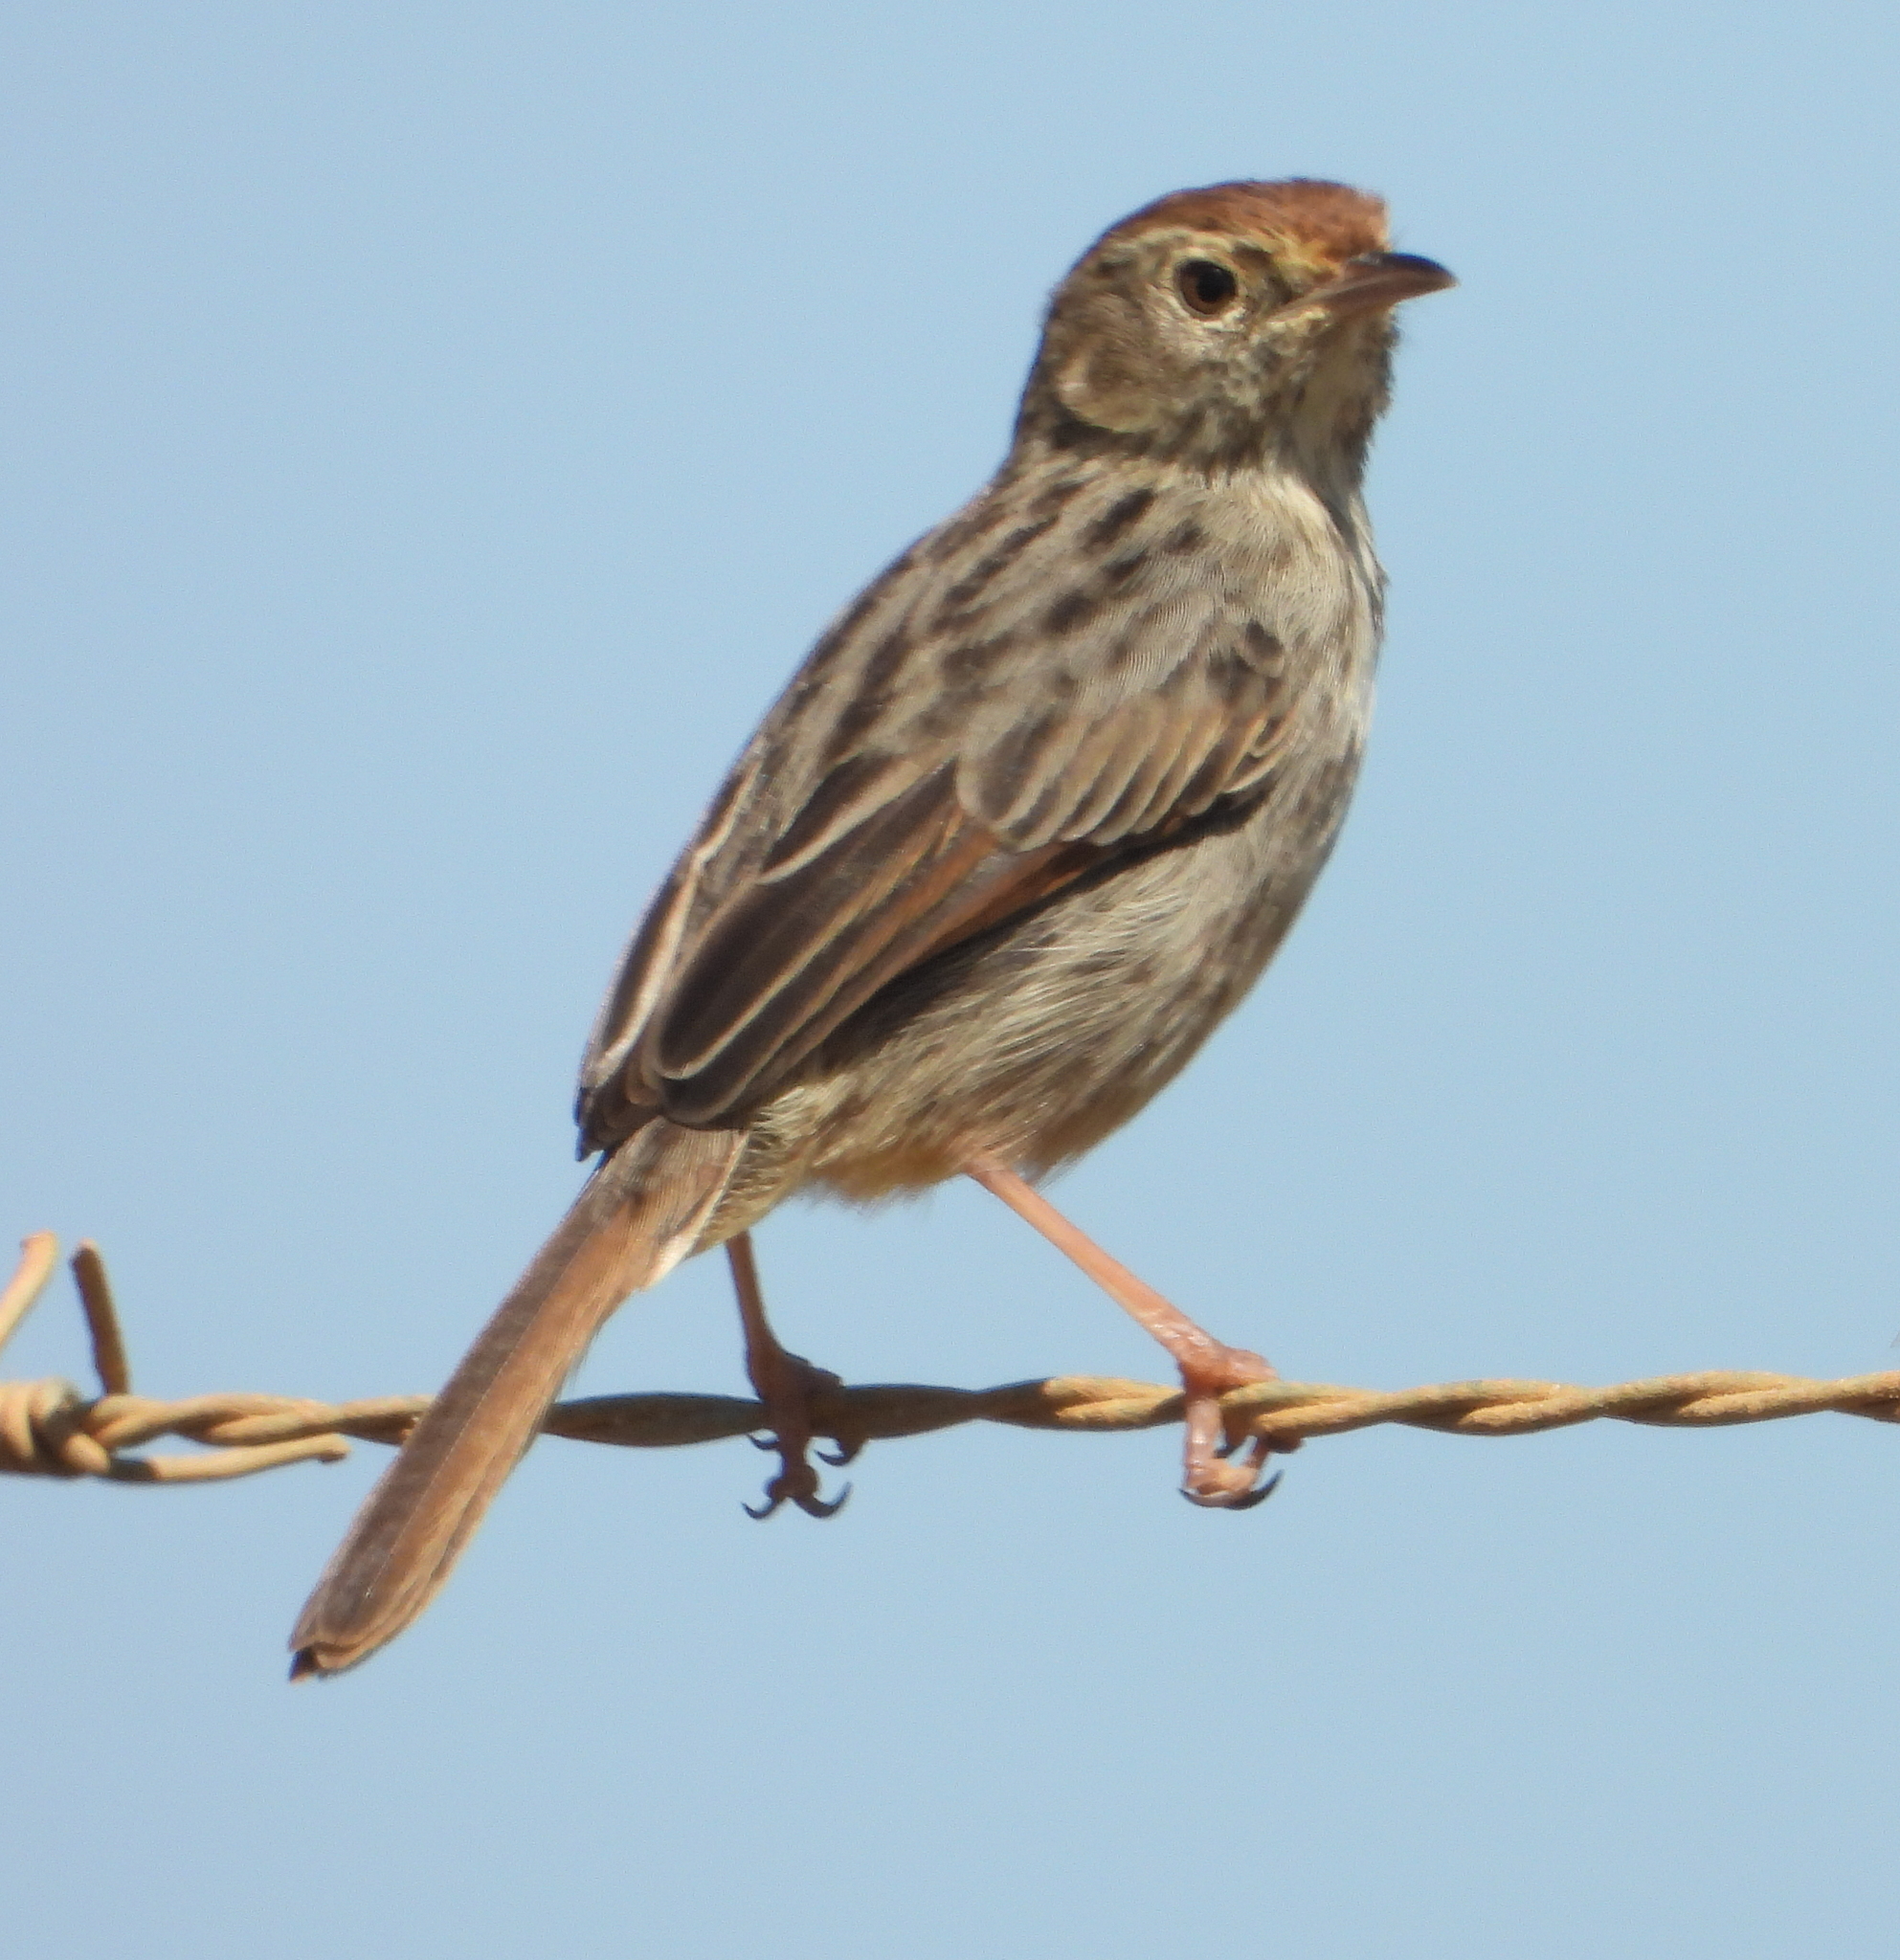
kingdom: Animalia
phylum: Chordata
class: Aves
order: Passeriformes
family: Cisticolidae
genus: Cisticola
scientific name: Cisticola subruficapilla
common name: Grey-backed cisticola
